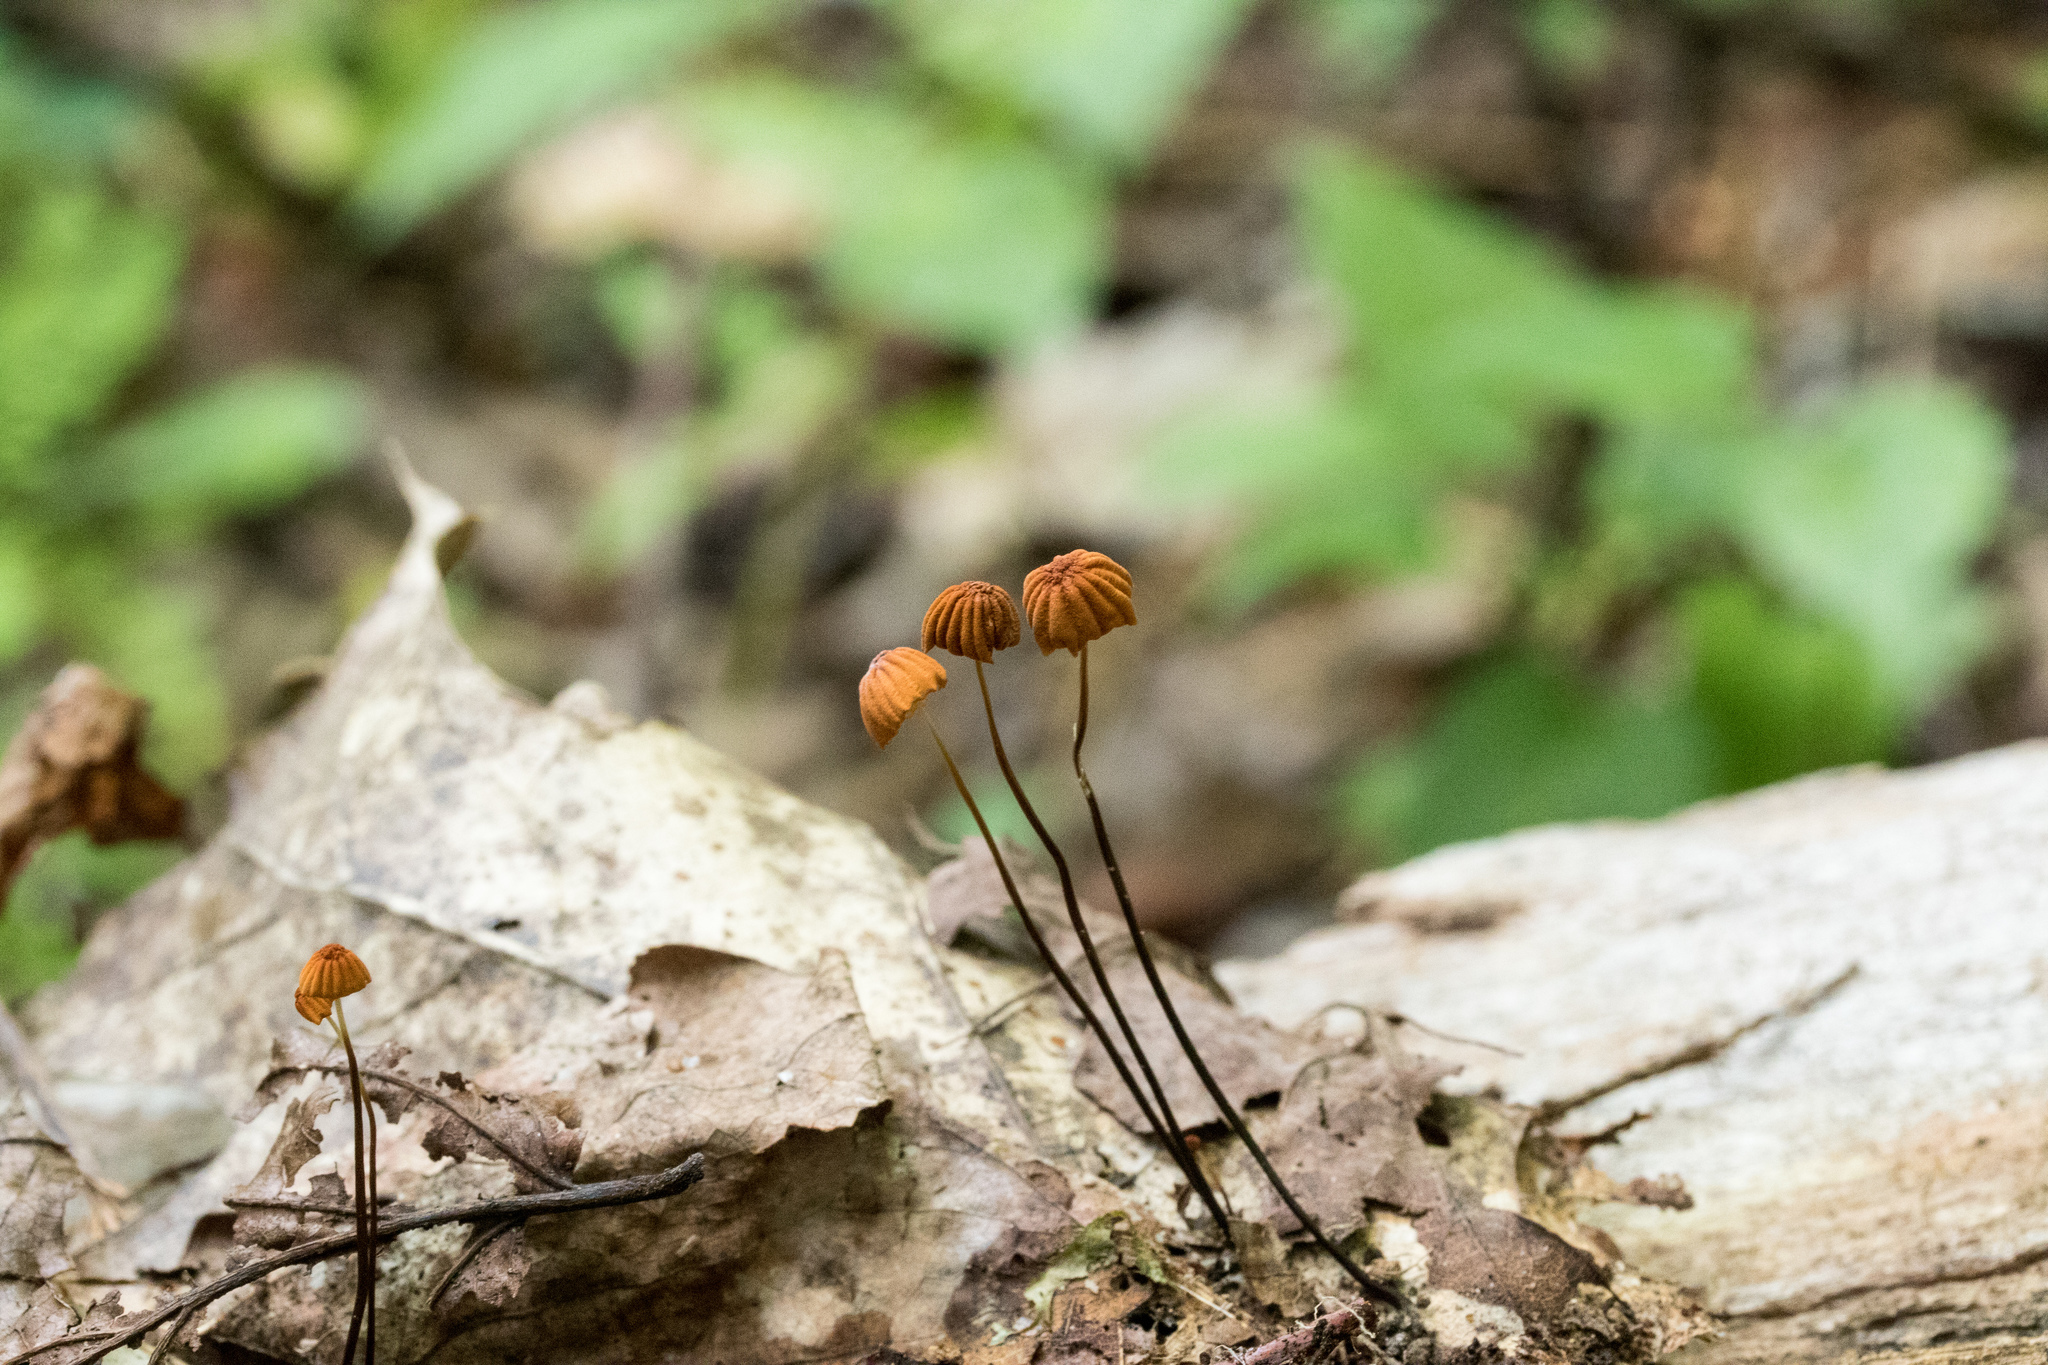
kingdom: Fungi
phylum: Basidiomycota
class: Agaricomycetes
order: Agaricales
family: Marasmiaceae
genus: Marasmius
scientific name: Marasmius siccus
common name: Orange pinwheel
